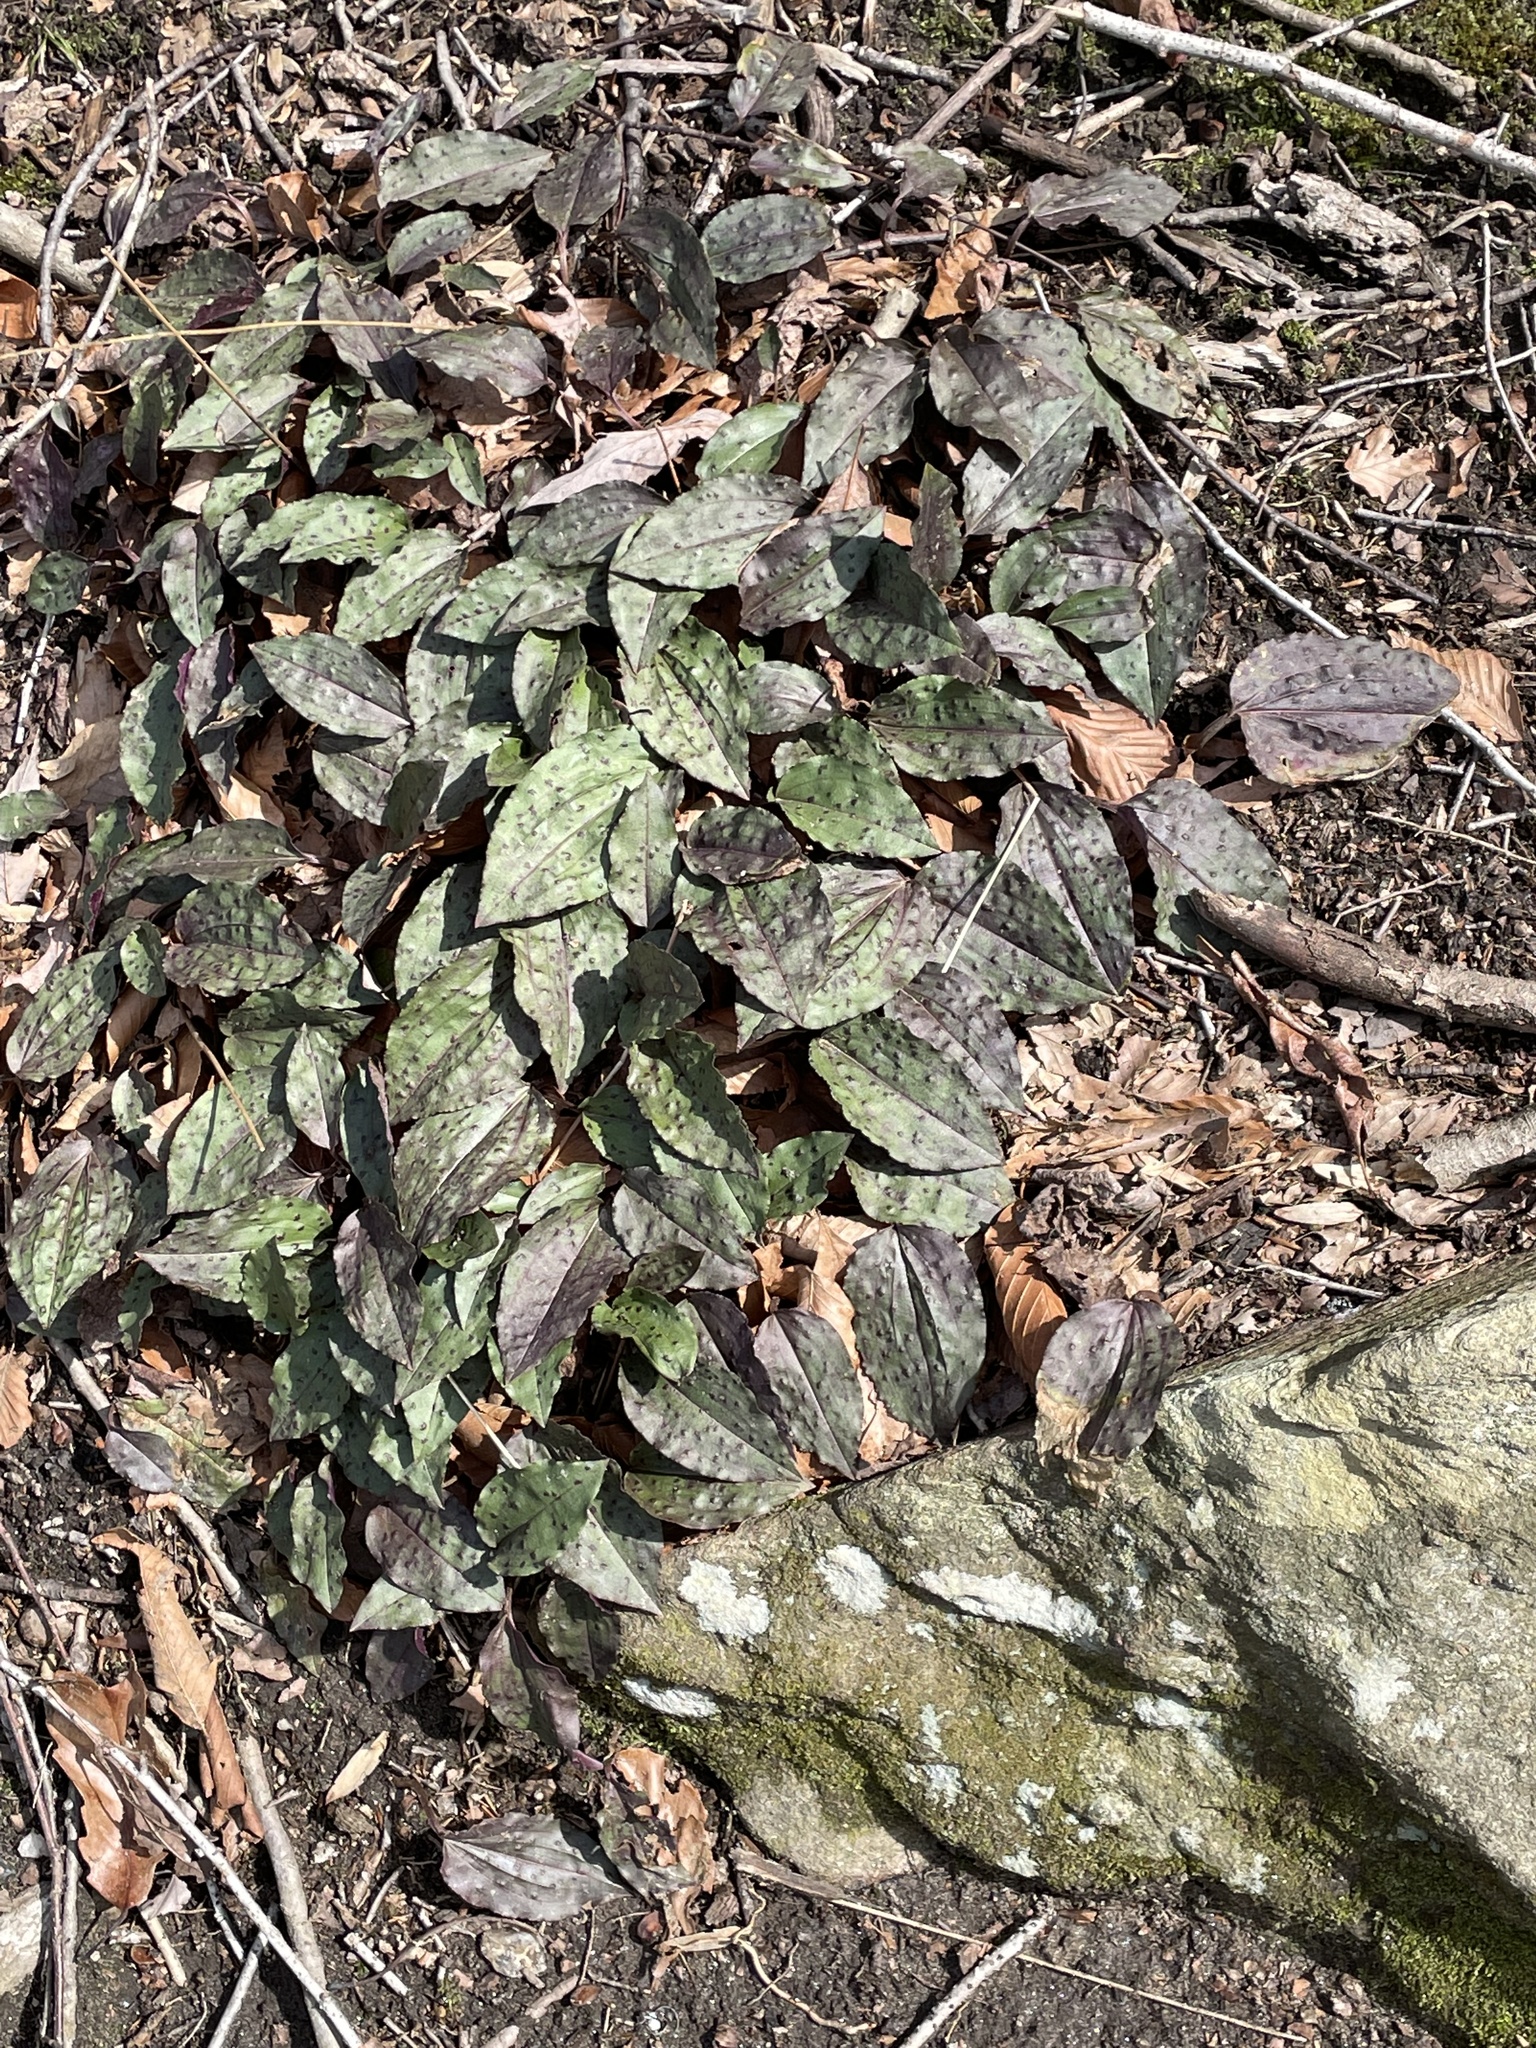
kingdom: Plantae
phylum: Tracheophyta
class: Liliopsida
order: Asparagales
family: Orchidaceae
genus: Tipularia
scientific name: Tipularia discolor
